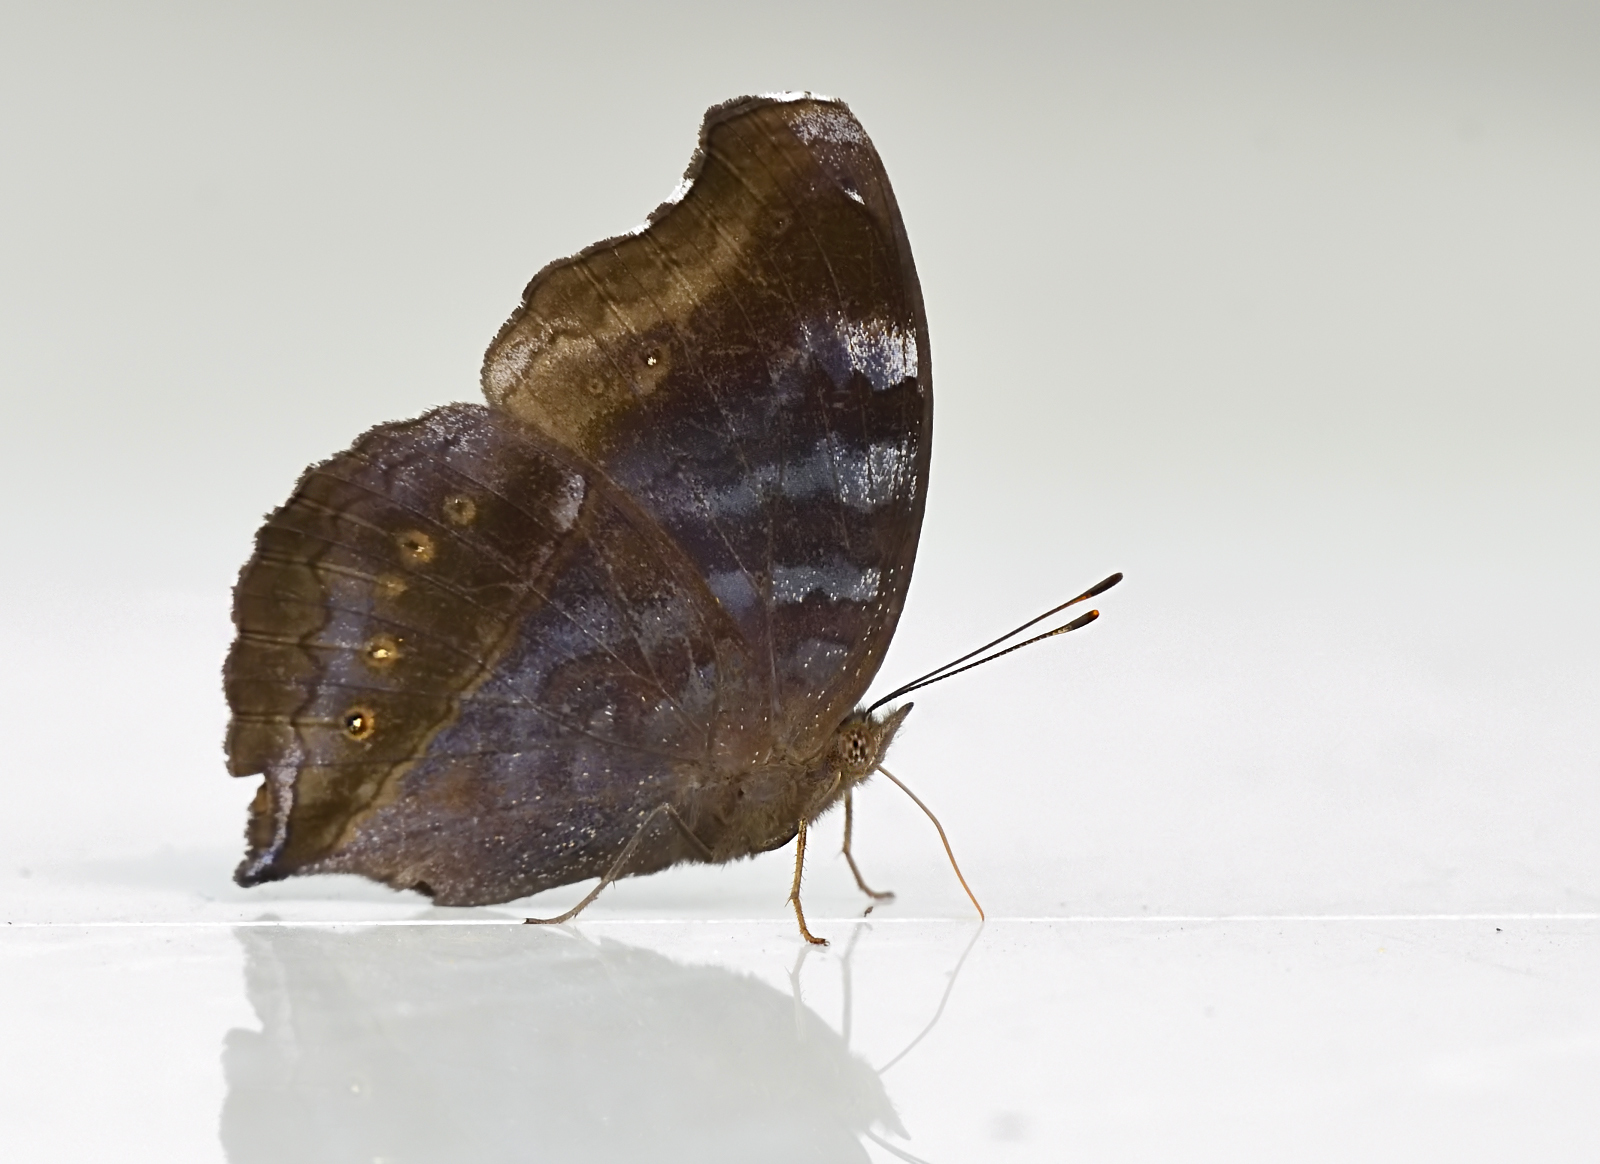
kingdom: Animalia
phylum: Arthropoda
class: Insecta
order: Lepidoptera
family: Nymphalidae
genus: Junonia
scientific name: Junonia iphita
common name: Chocolate pansy
